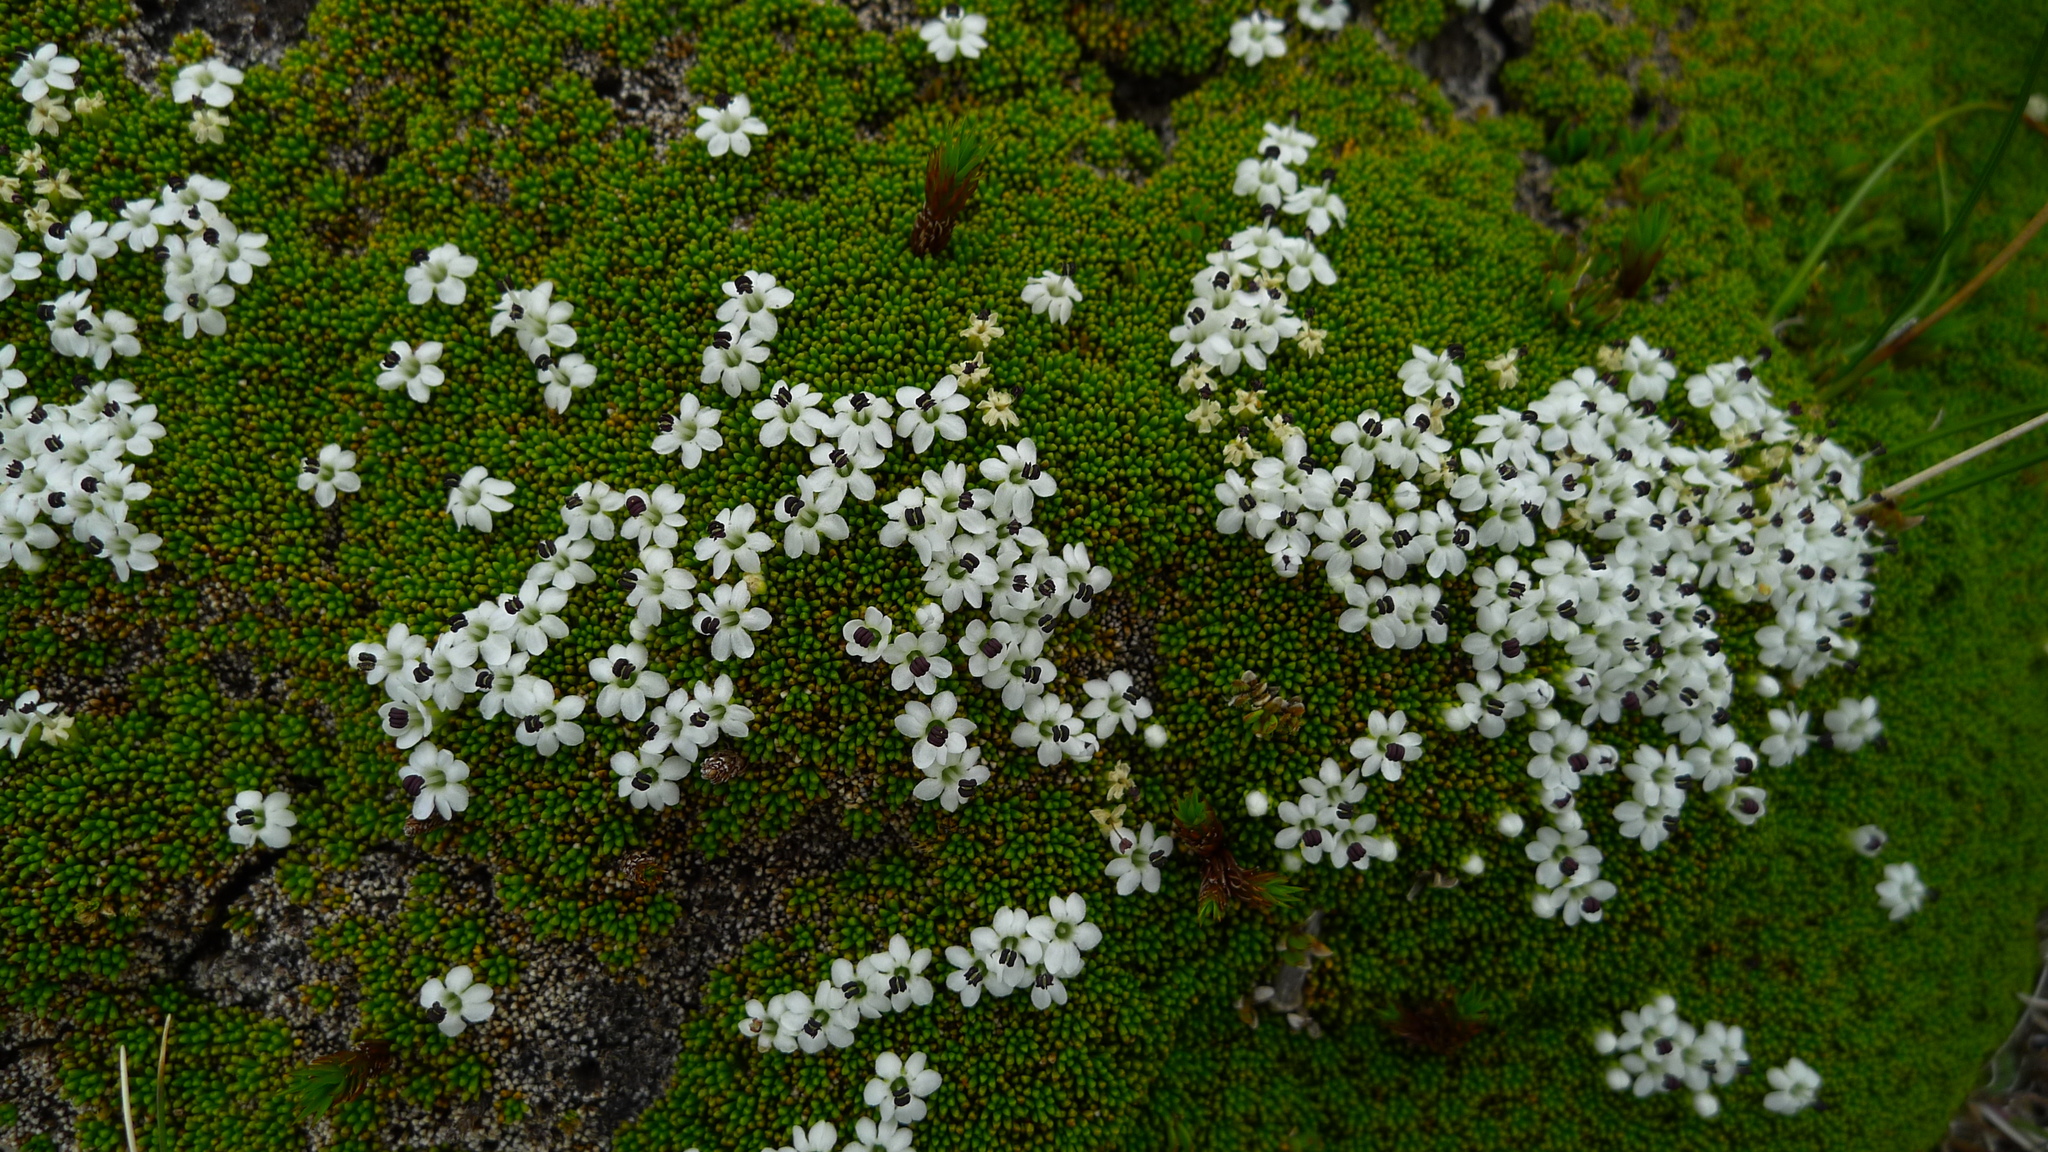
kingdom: Plantae
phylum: Tracheophyta
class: Magnoliopsida
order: Asterales
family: Stylidiaceae
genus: Phyllachne
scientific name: Phyllachne colensoi
